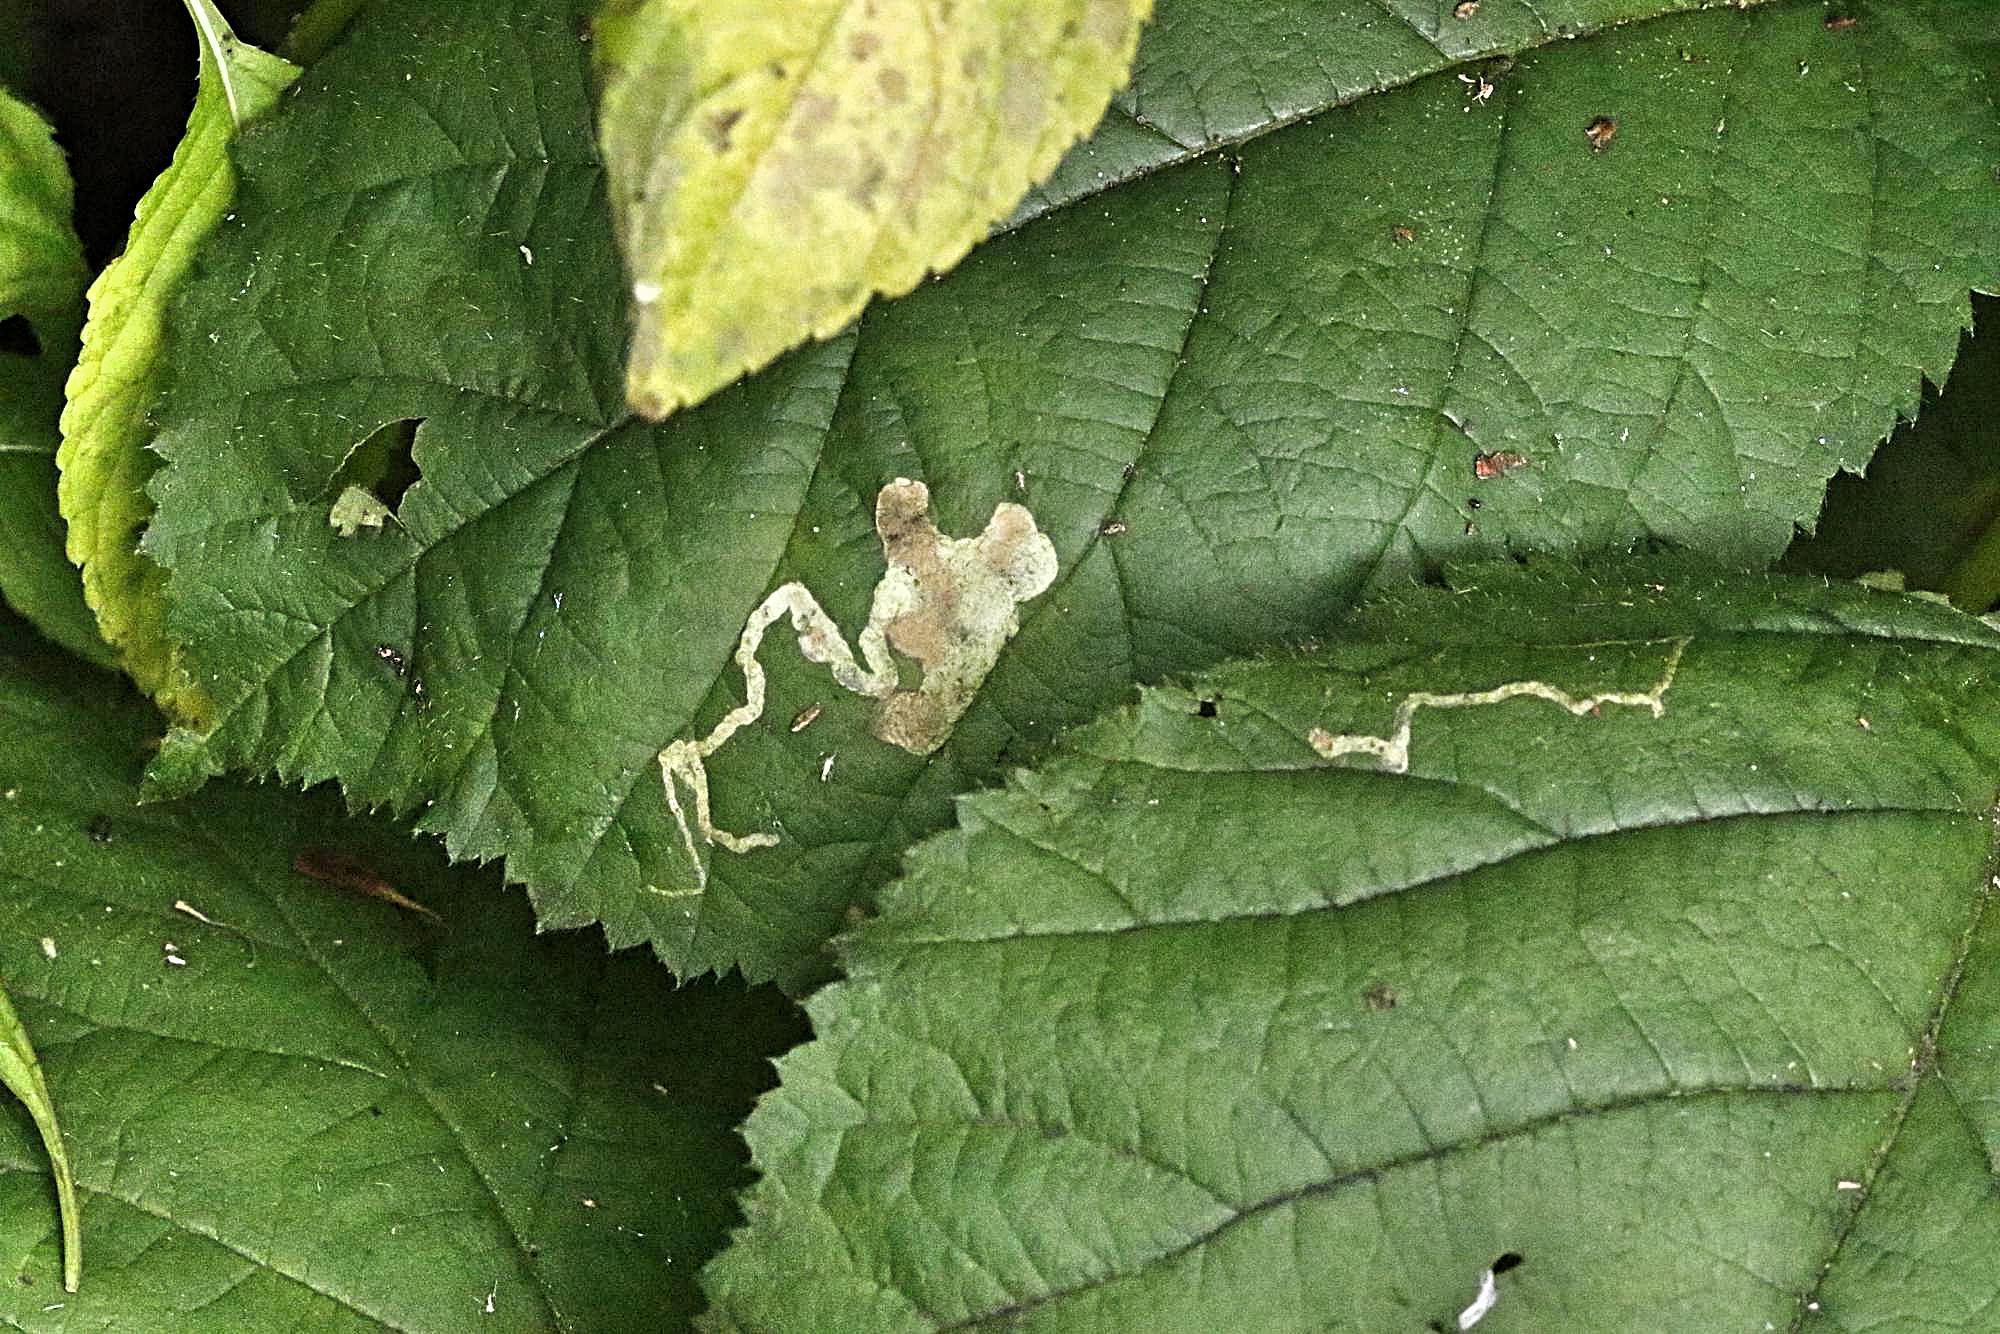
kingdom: Animalia
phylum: Arthropoda
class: Insecta
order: Lepidoptera
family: Nepticulidae
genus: Stigmella
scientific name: Stigmella aurella
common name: Golden pigmy
